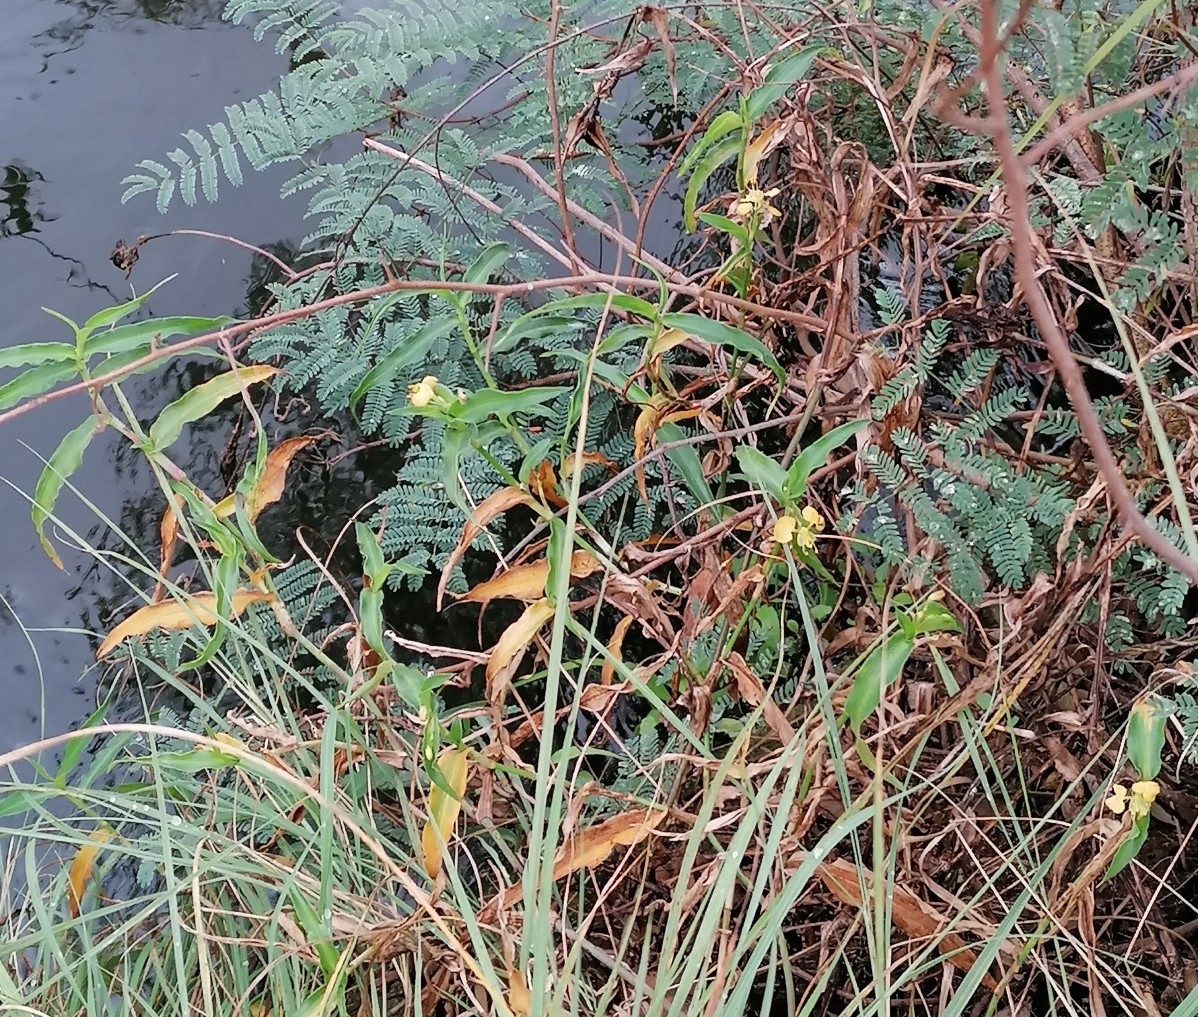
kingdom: Plantae
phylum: Tracheophyta
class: Liliopsida
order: Commelinales
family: Commelinaceae
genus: Commelina
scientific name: Commelina africana
